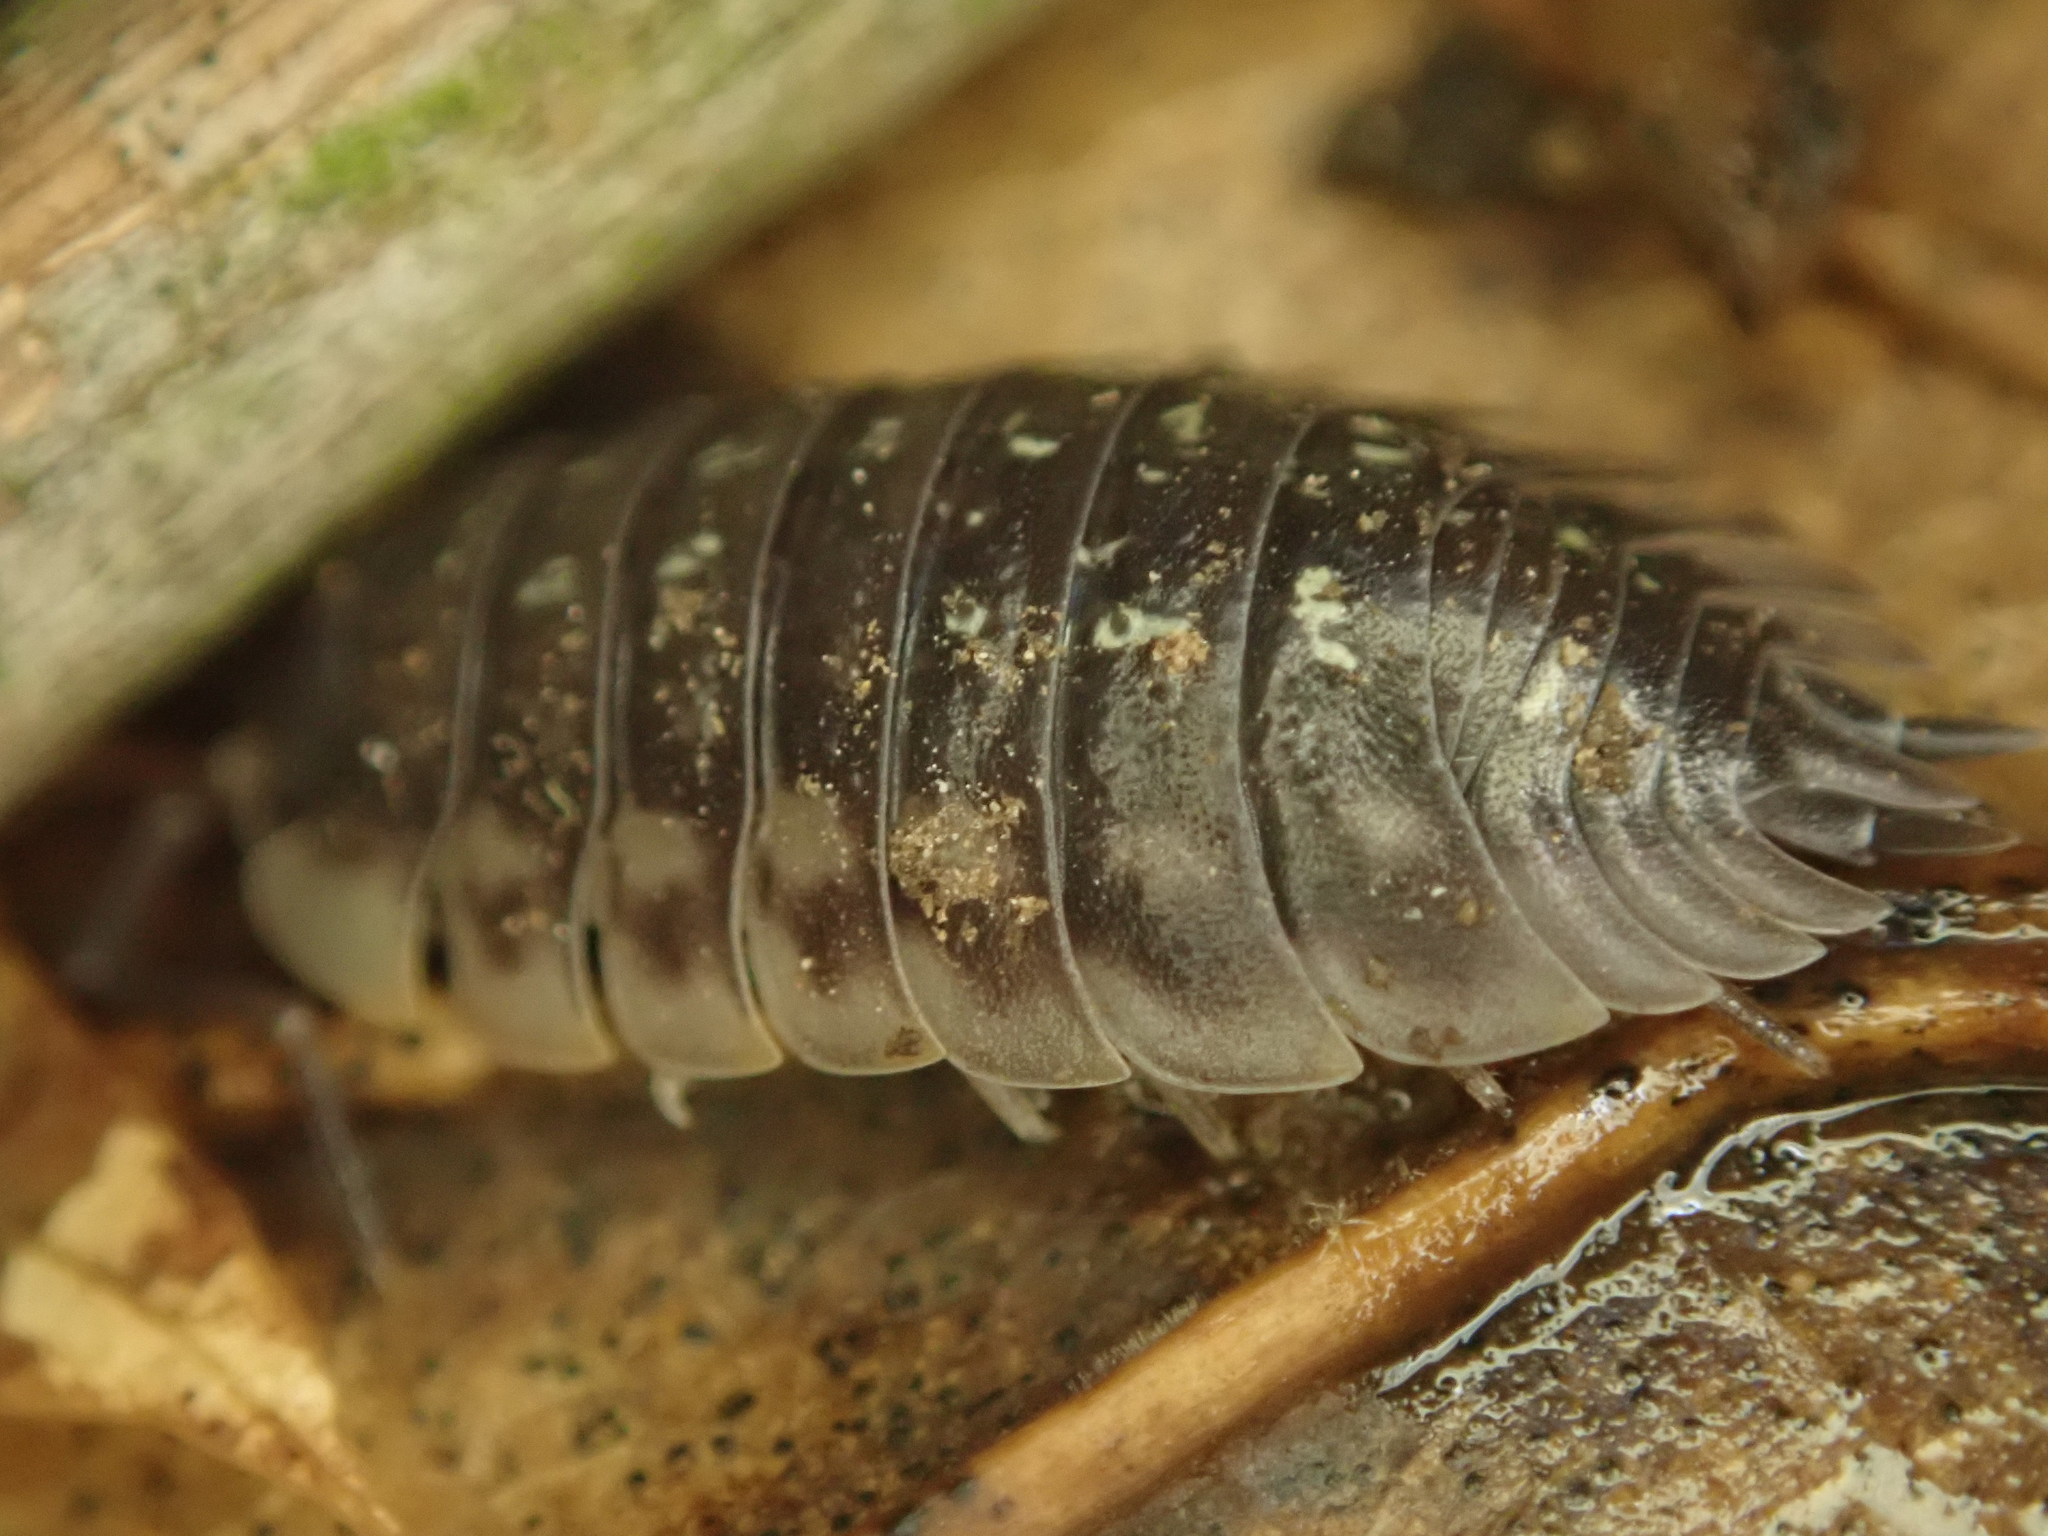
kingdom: Animalia
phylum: Arthropoda
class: Malacostraca
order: Isopoda
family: Oniscidae
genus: Oniscus
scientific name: Oniscus asellus
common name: Common shiny woodlouse
